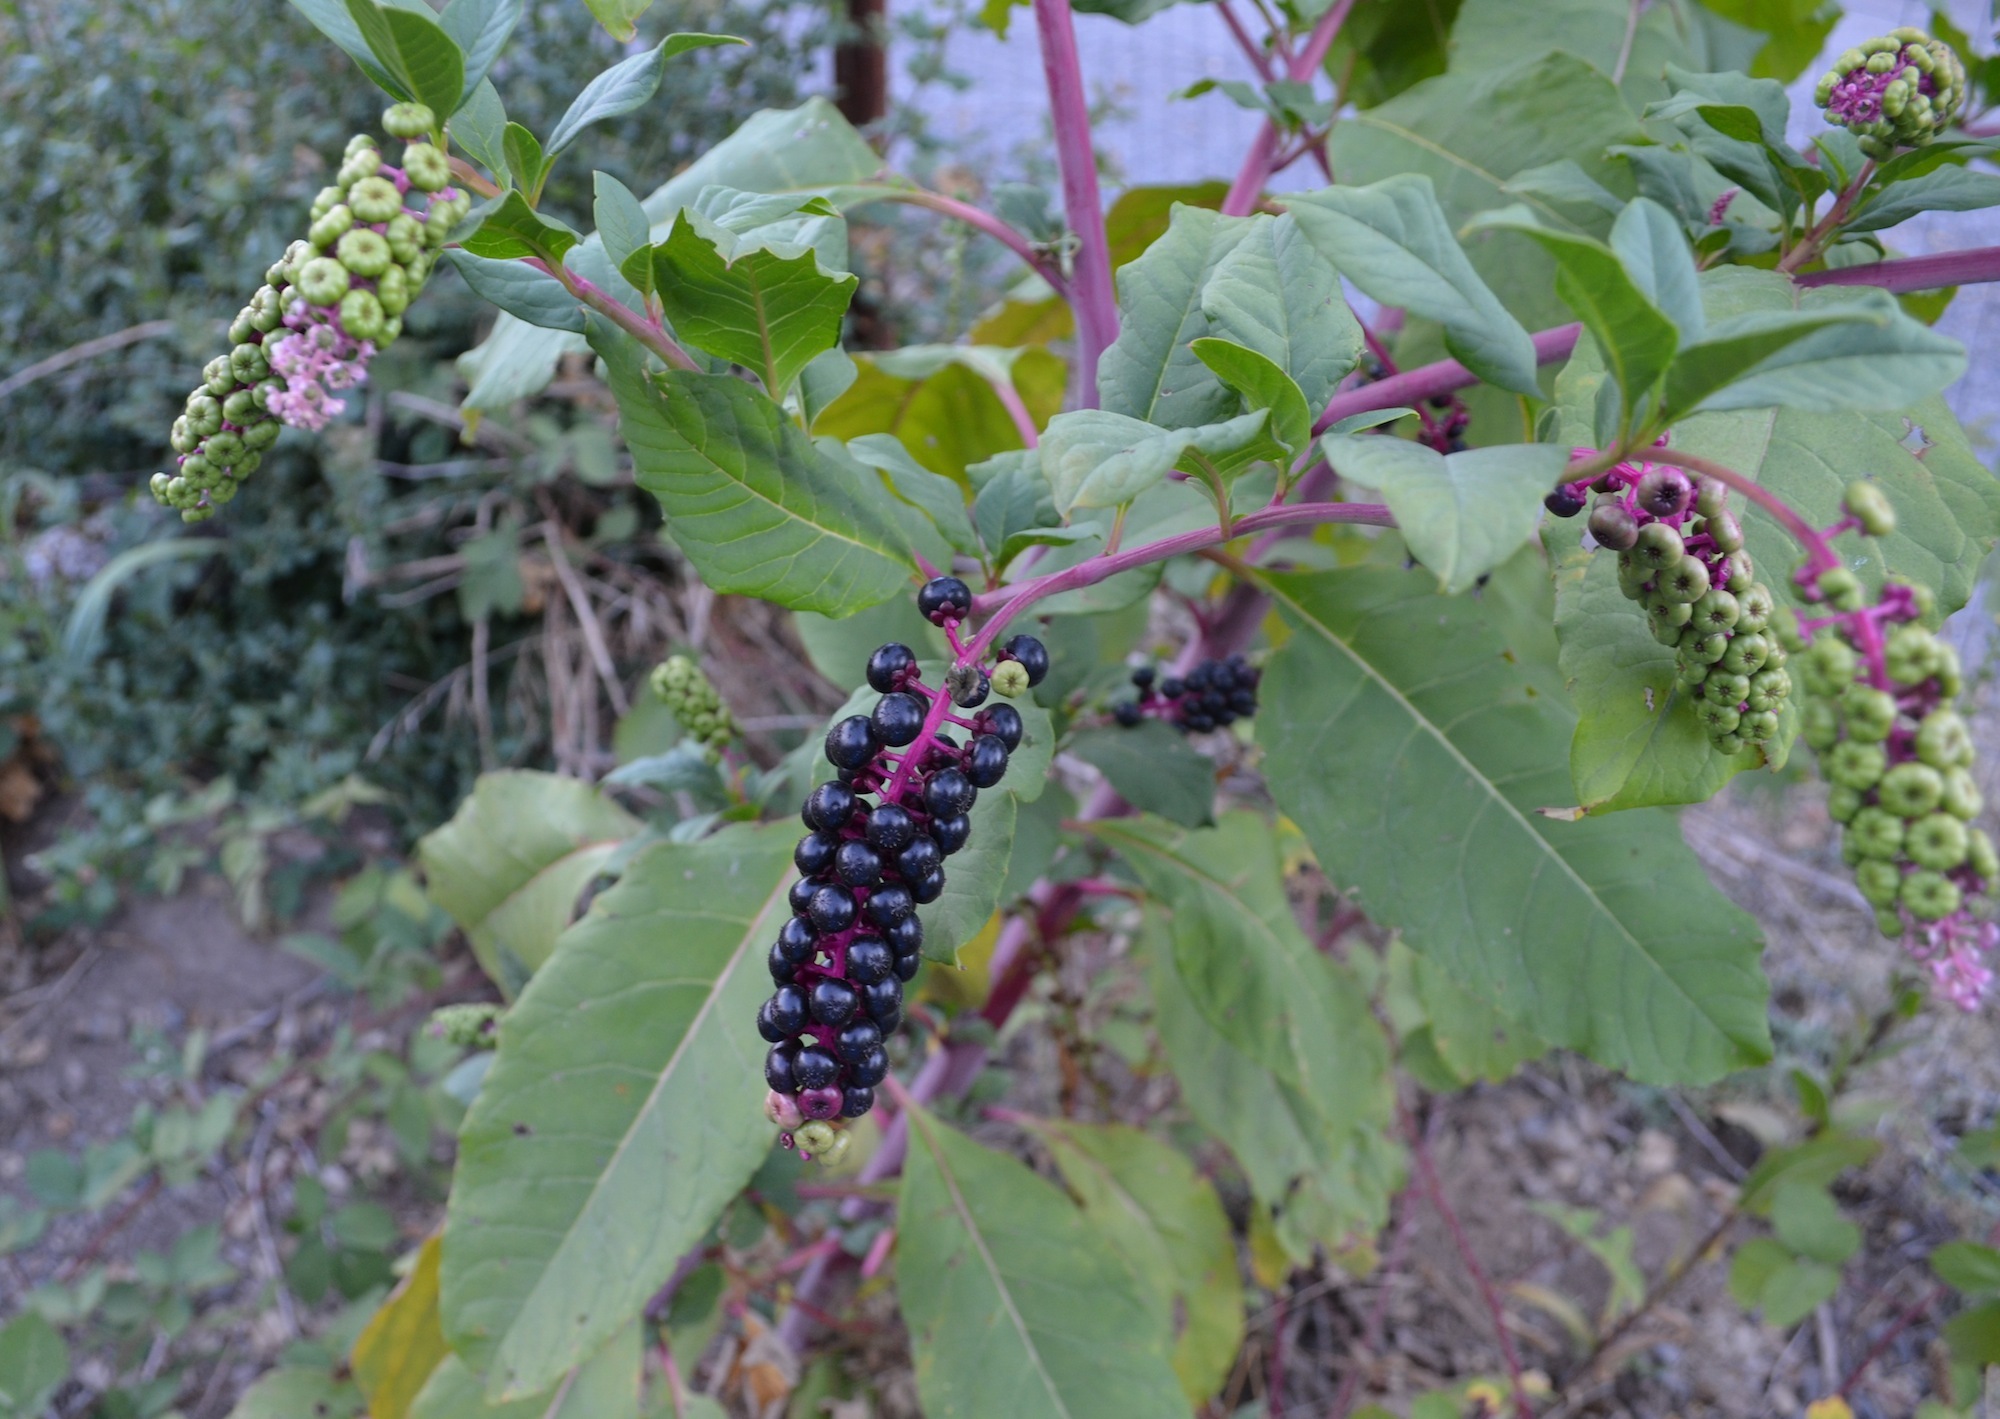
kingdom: Plantae
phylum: Tracheophyta
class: Magnoliopsida
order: Caryophyllales
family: Phytolaccaceae
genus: Phytolacca
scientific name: Phytolacca americana
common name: American pokeweed
